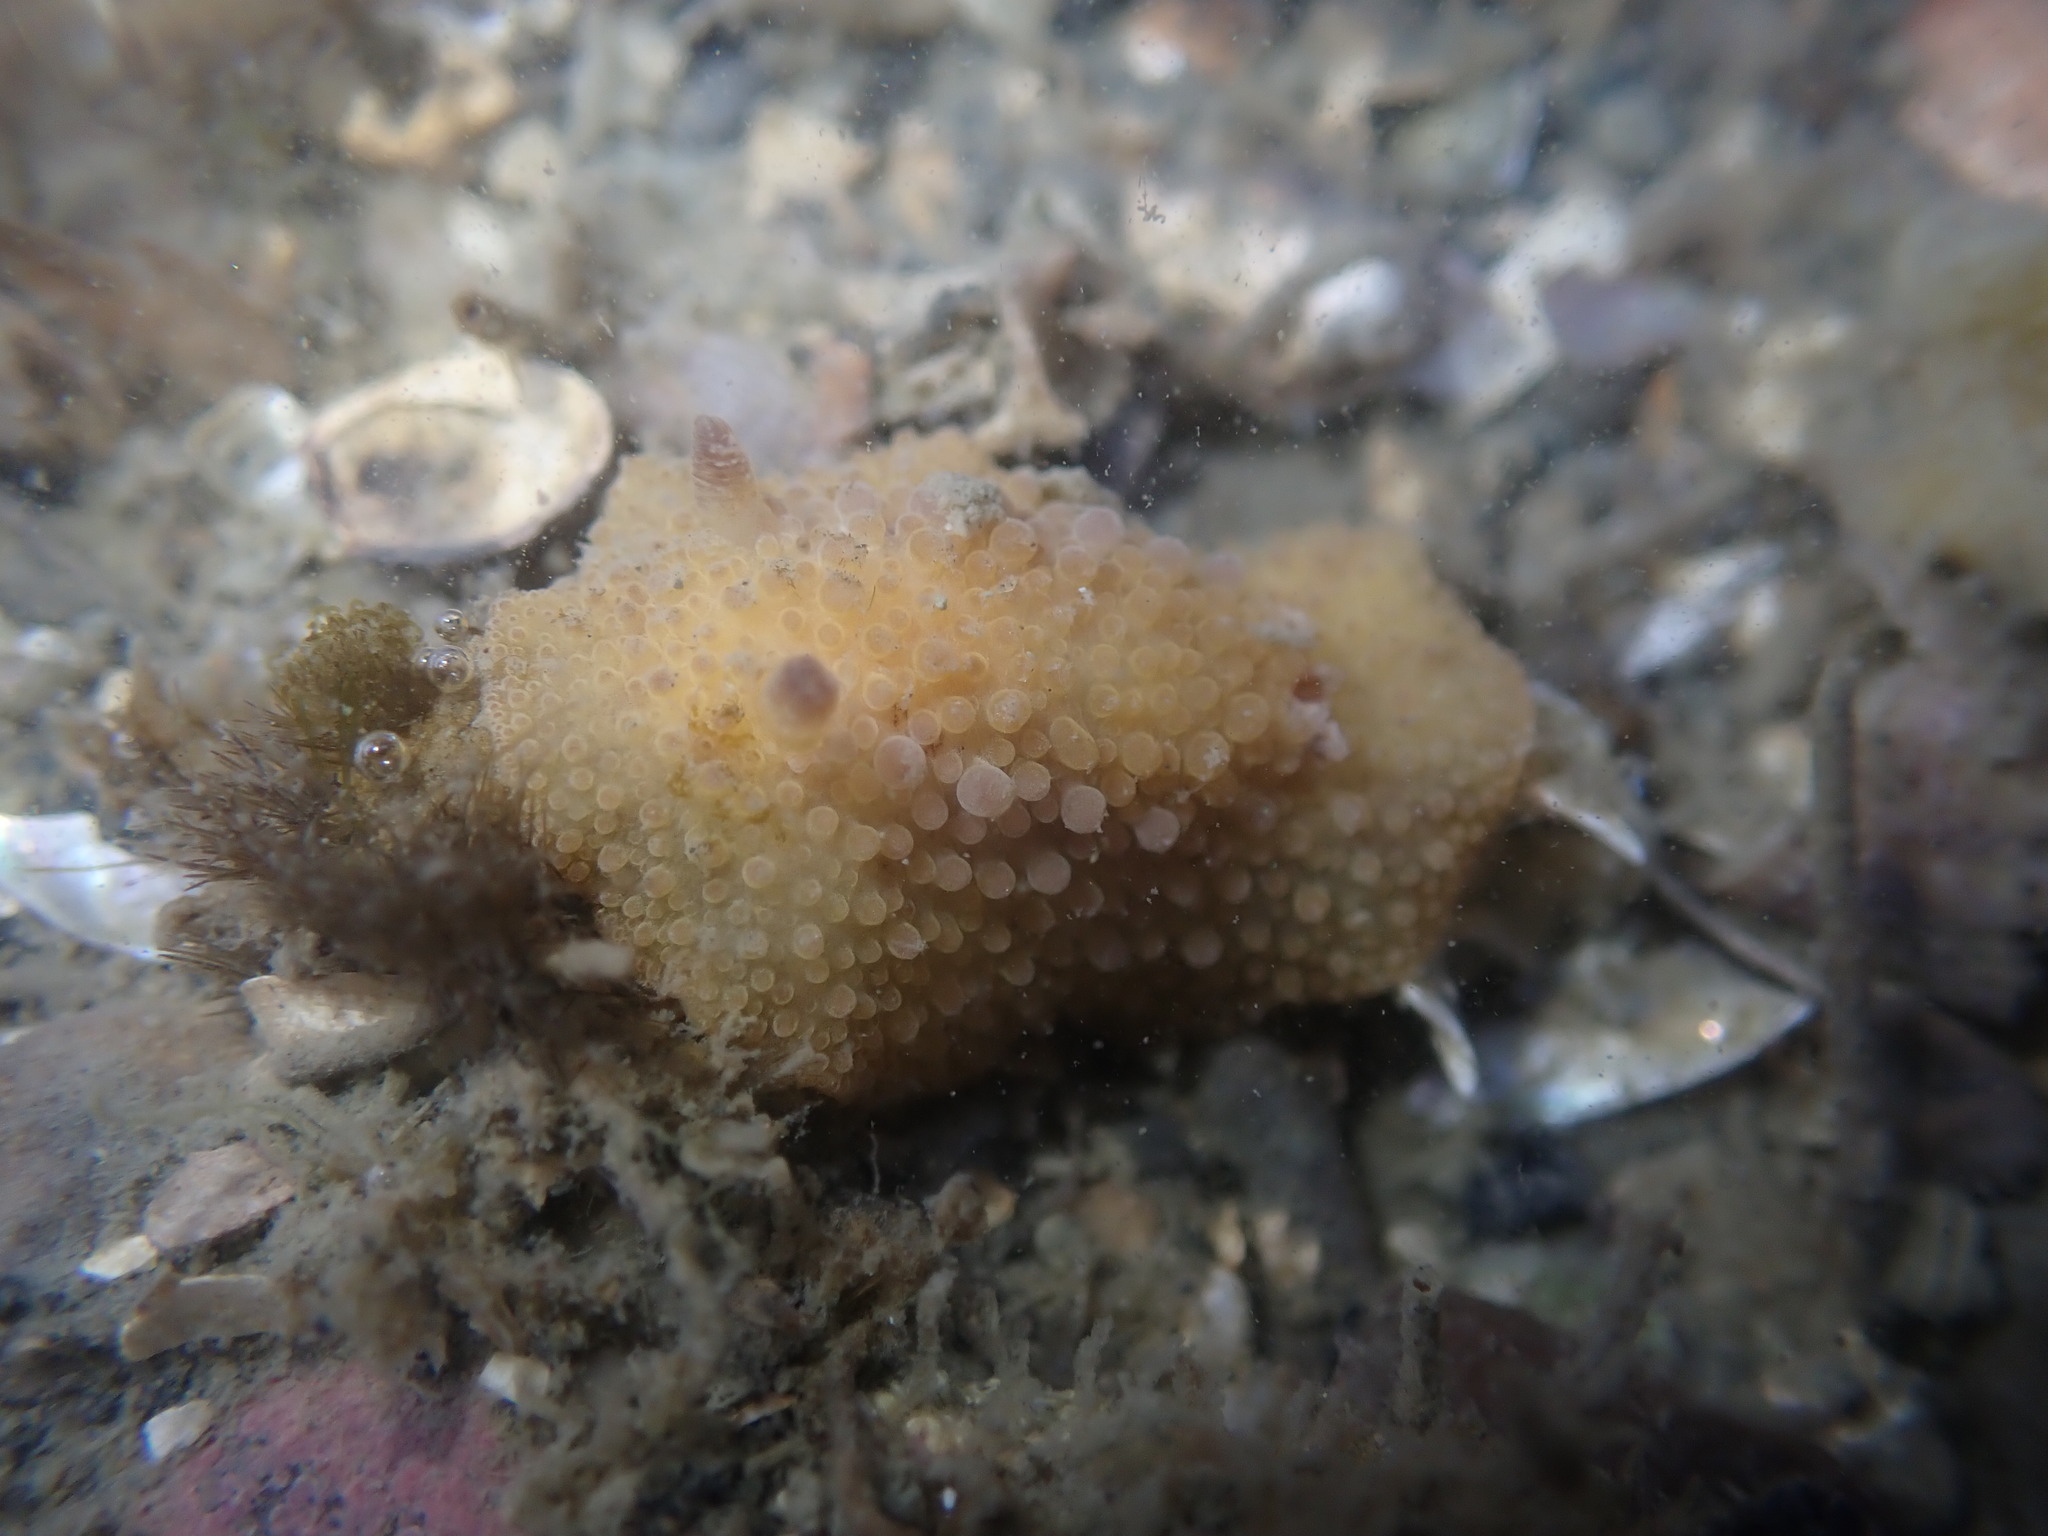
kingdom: Animalia
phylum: Mollusca
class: Gastropoda
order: Nudibranchia
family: Discodorididae
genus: Carminodoris
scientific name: Carminodoris nodulosa
